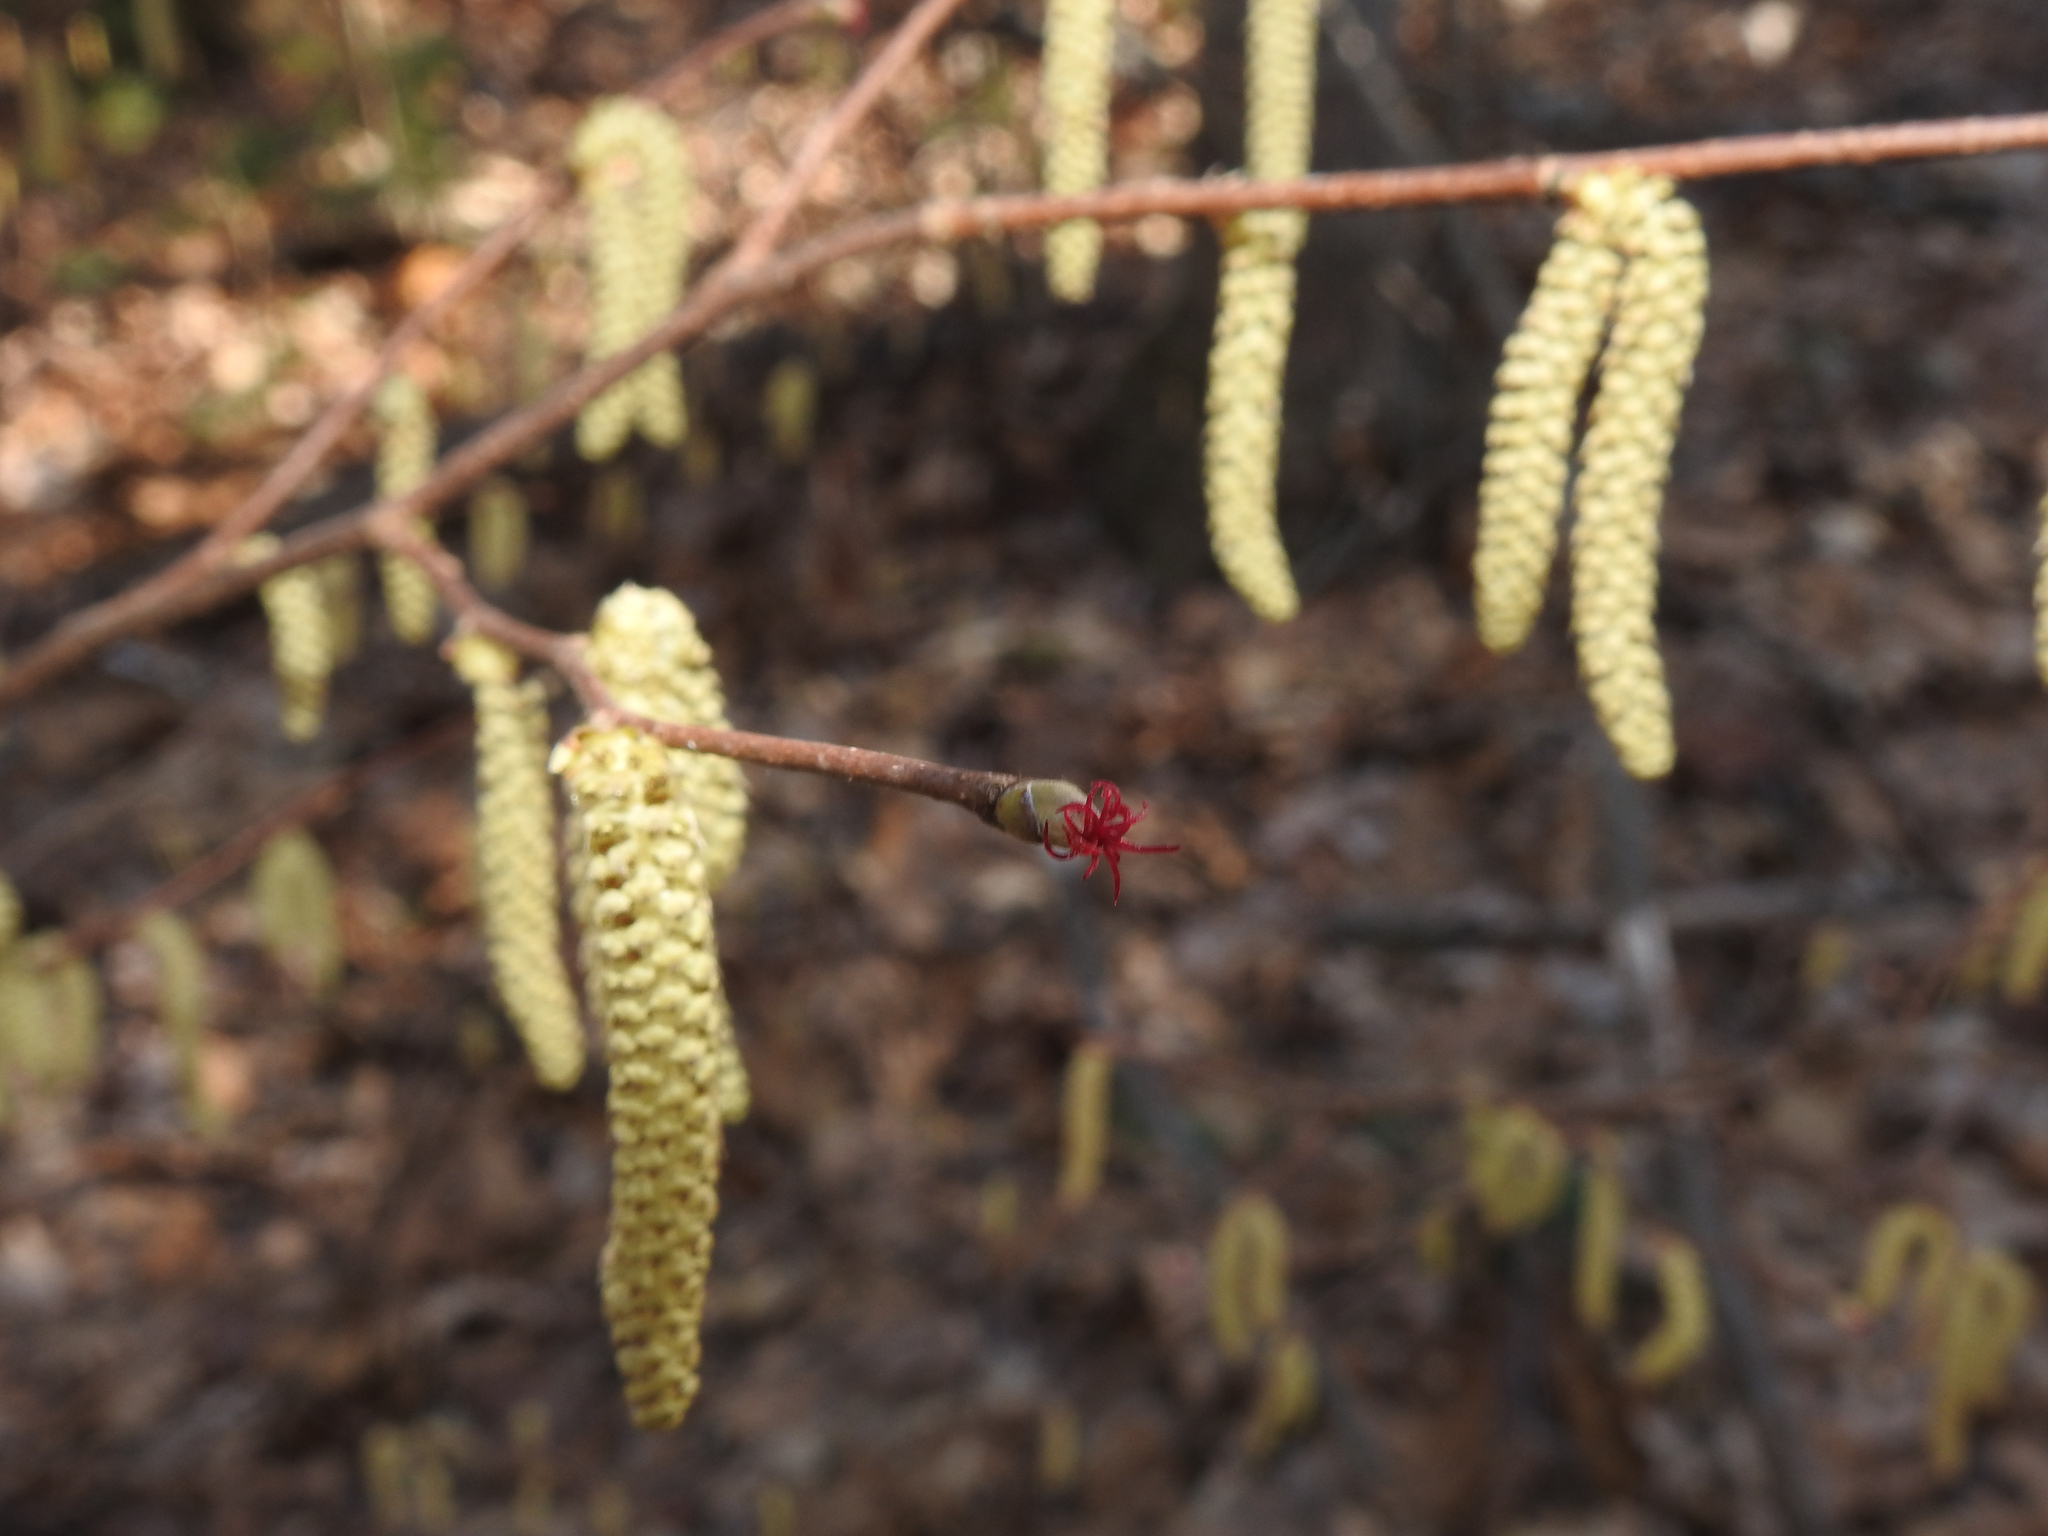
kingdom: Plantae
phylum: Tracheophyta
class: Magnoliopsida
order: Fagales
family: Betulaceae
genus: Corylus
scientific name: Corylus cornuta
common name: Beaked hazel
